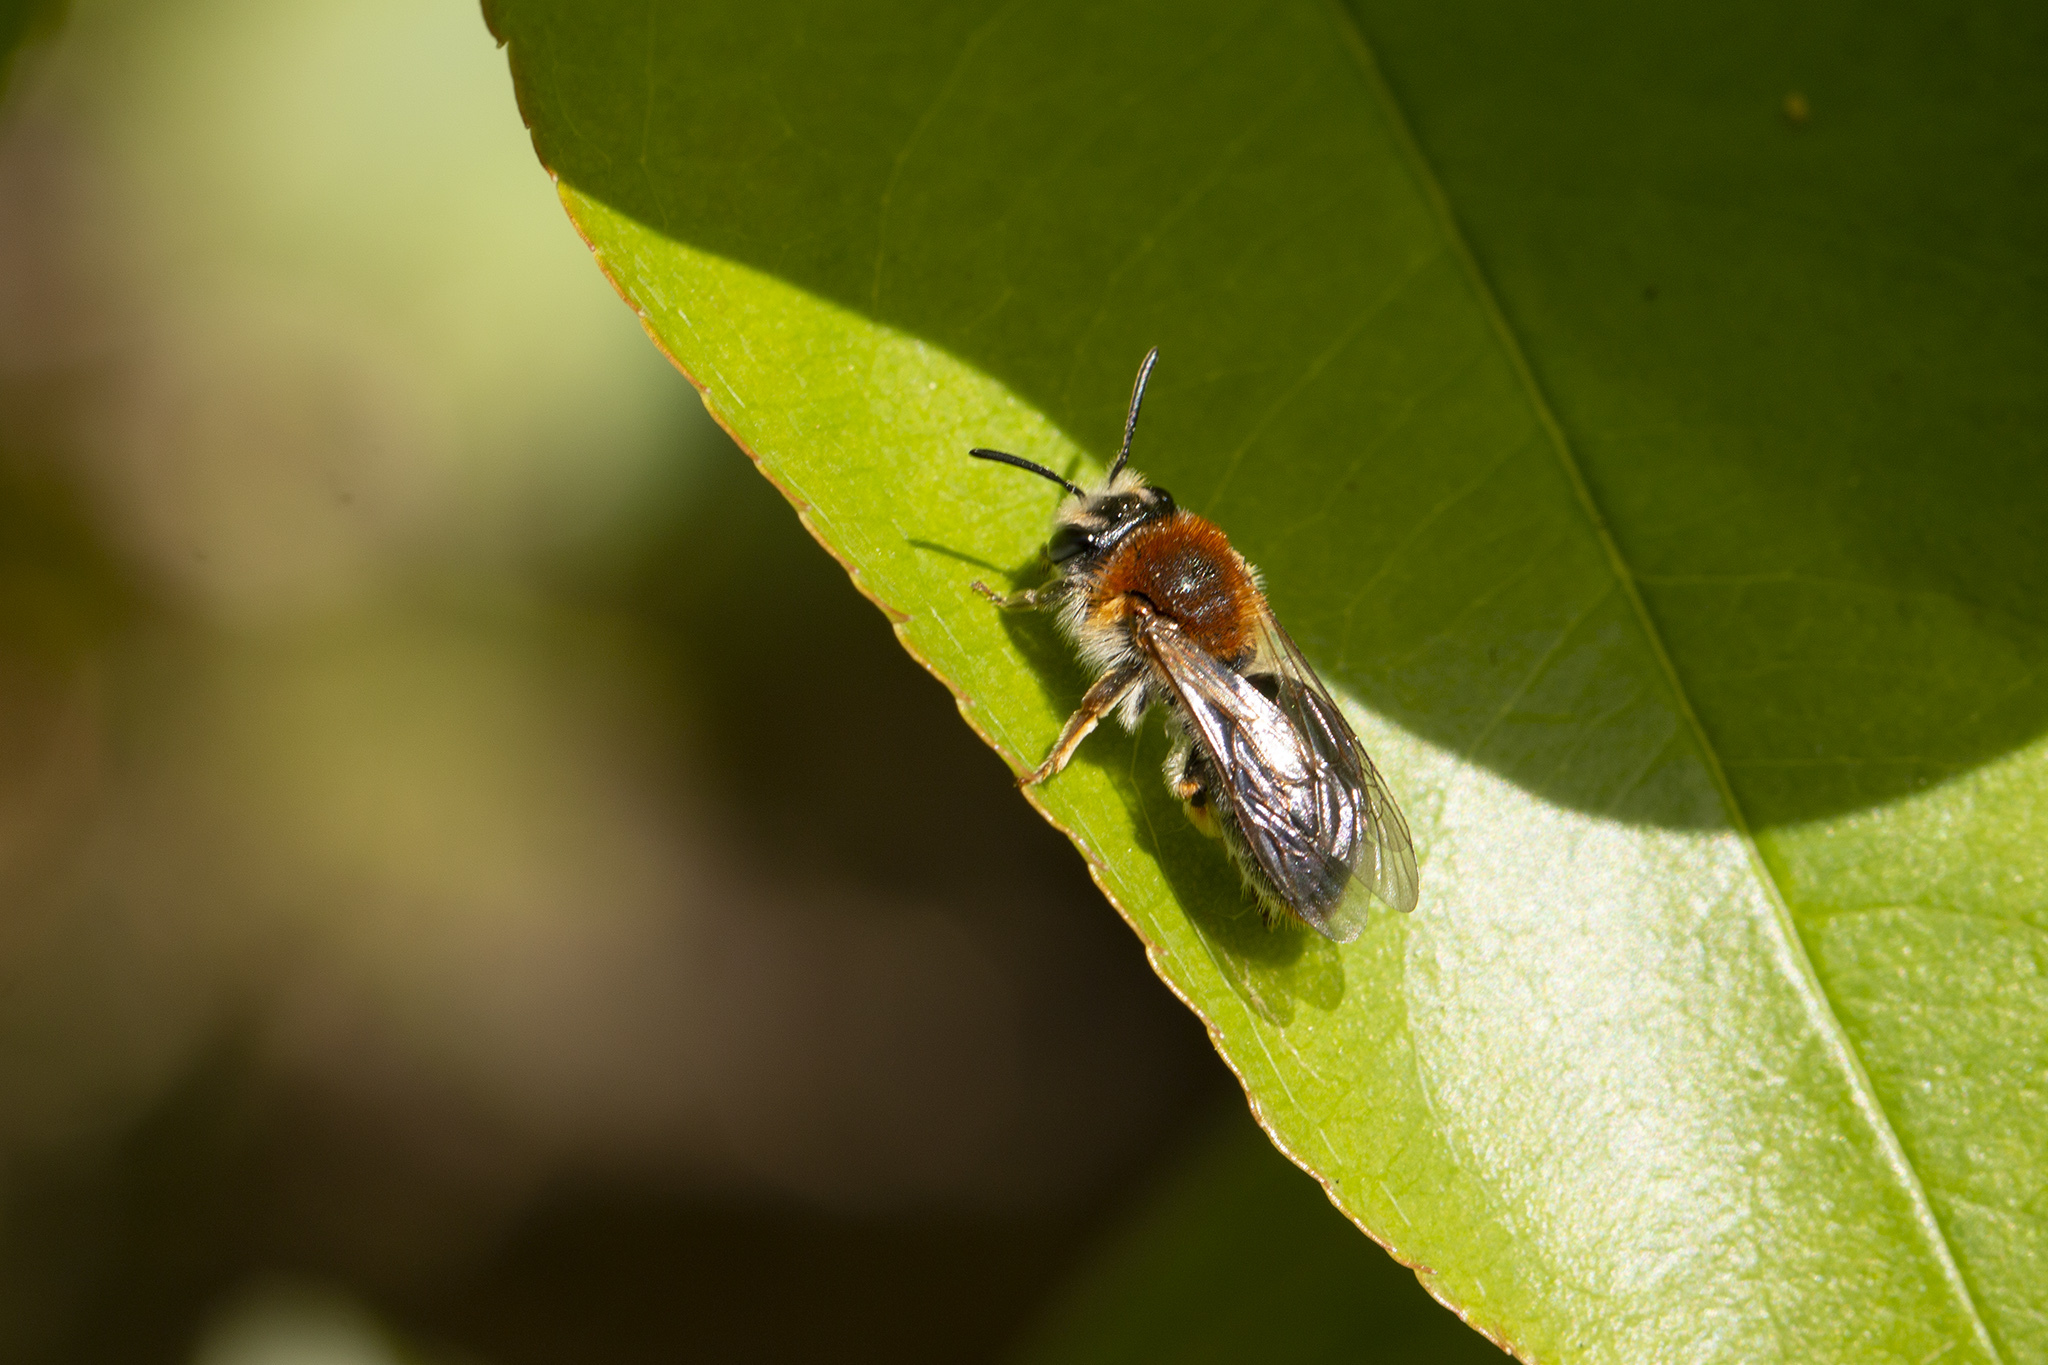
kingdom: Animalia
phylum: Arthropoda
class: Insecta
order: Hymenoptera
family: Andrenidae
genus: Andrena
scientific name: Andrena haemorrhoa
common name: Early mining bee
